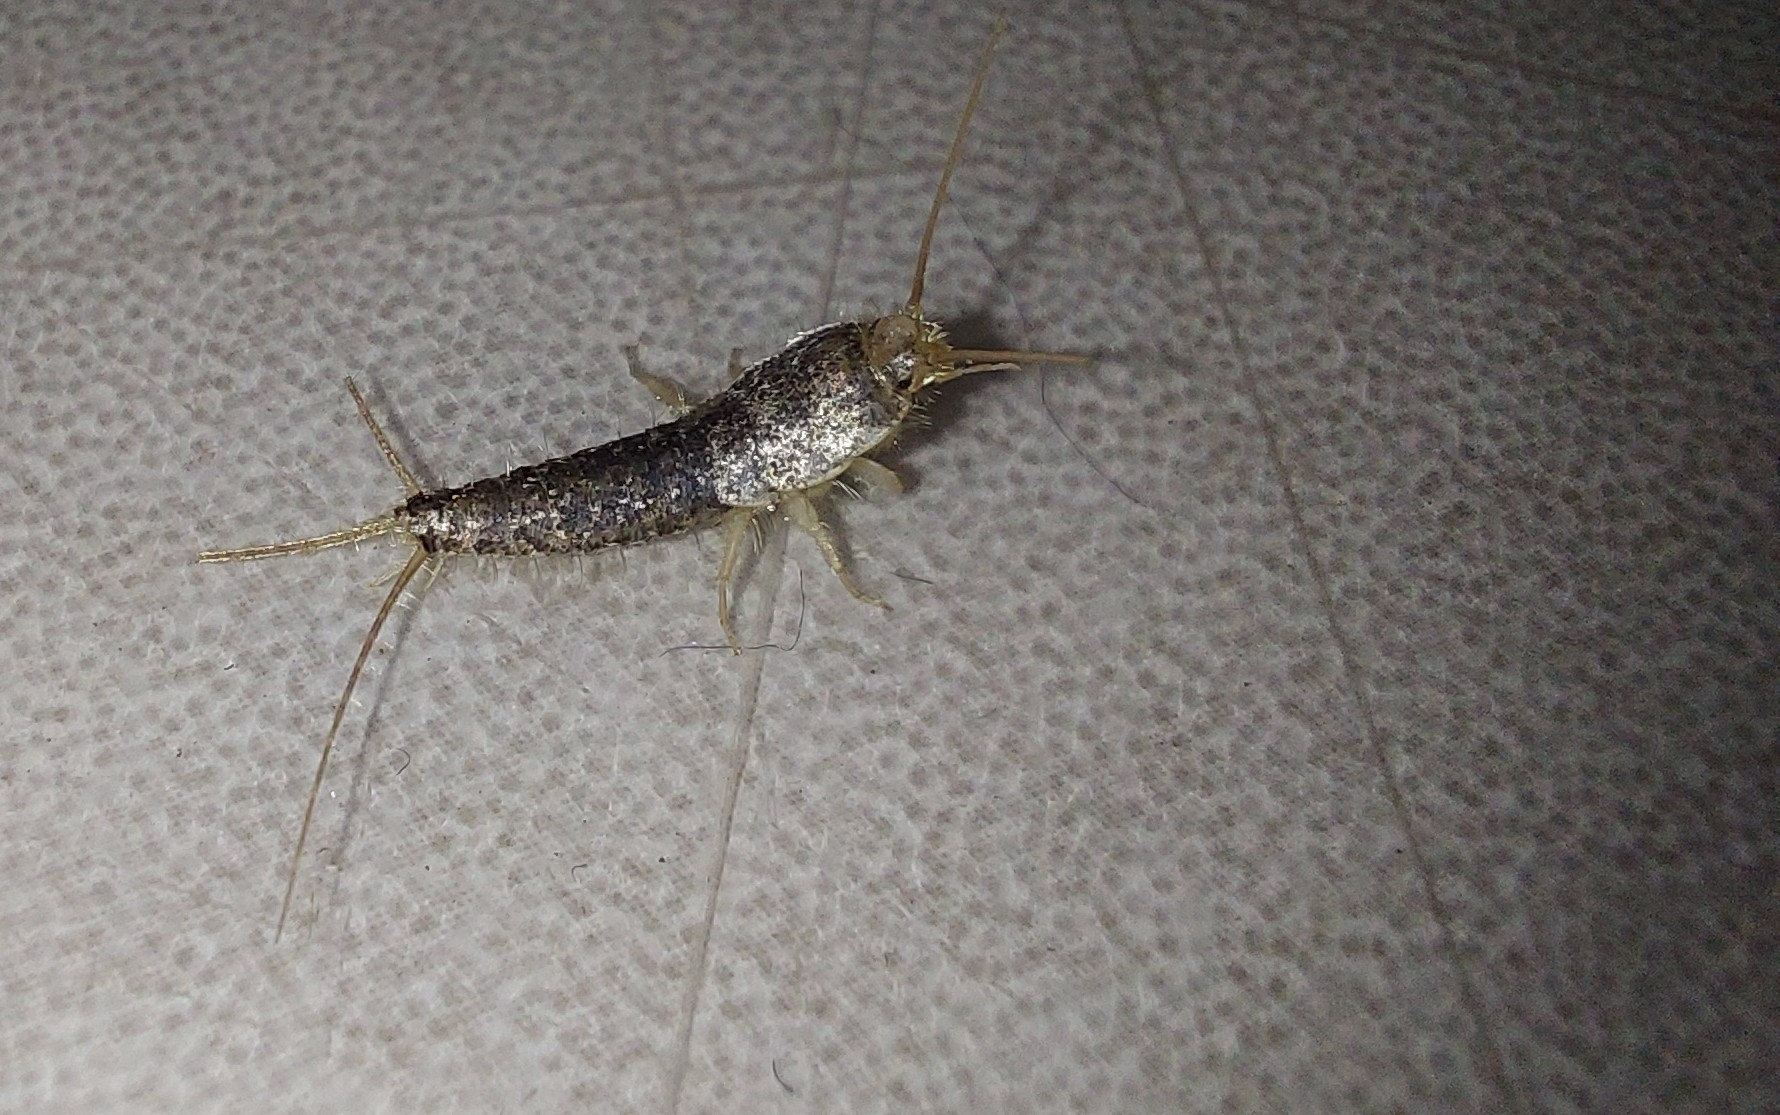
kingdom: Animalia
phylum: Arthropoda
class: Insecta
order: Zygentoma
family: Lepismatidae
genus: Ctenolepisma
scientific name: Ctenolepisma longicaudatum
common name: Silverfish
